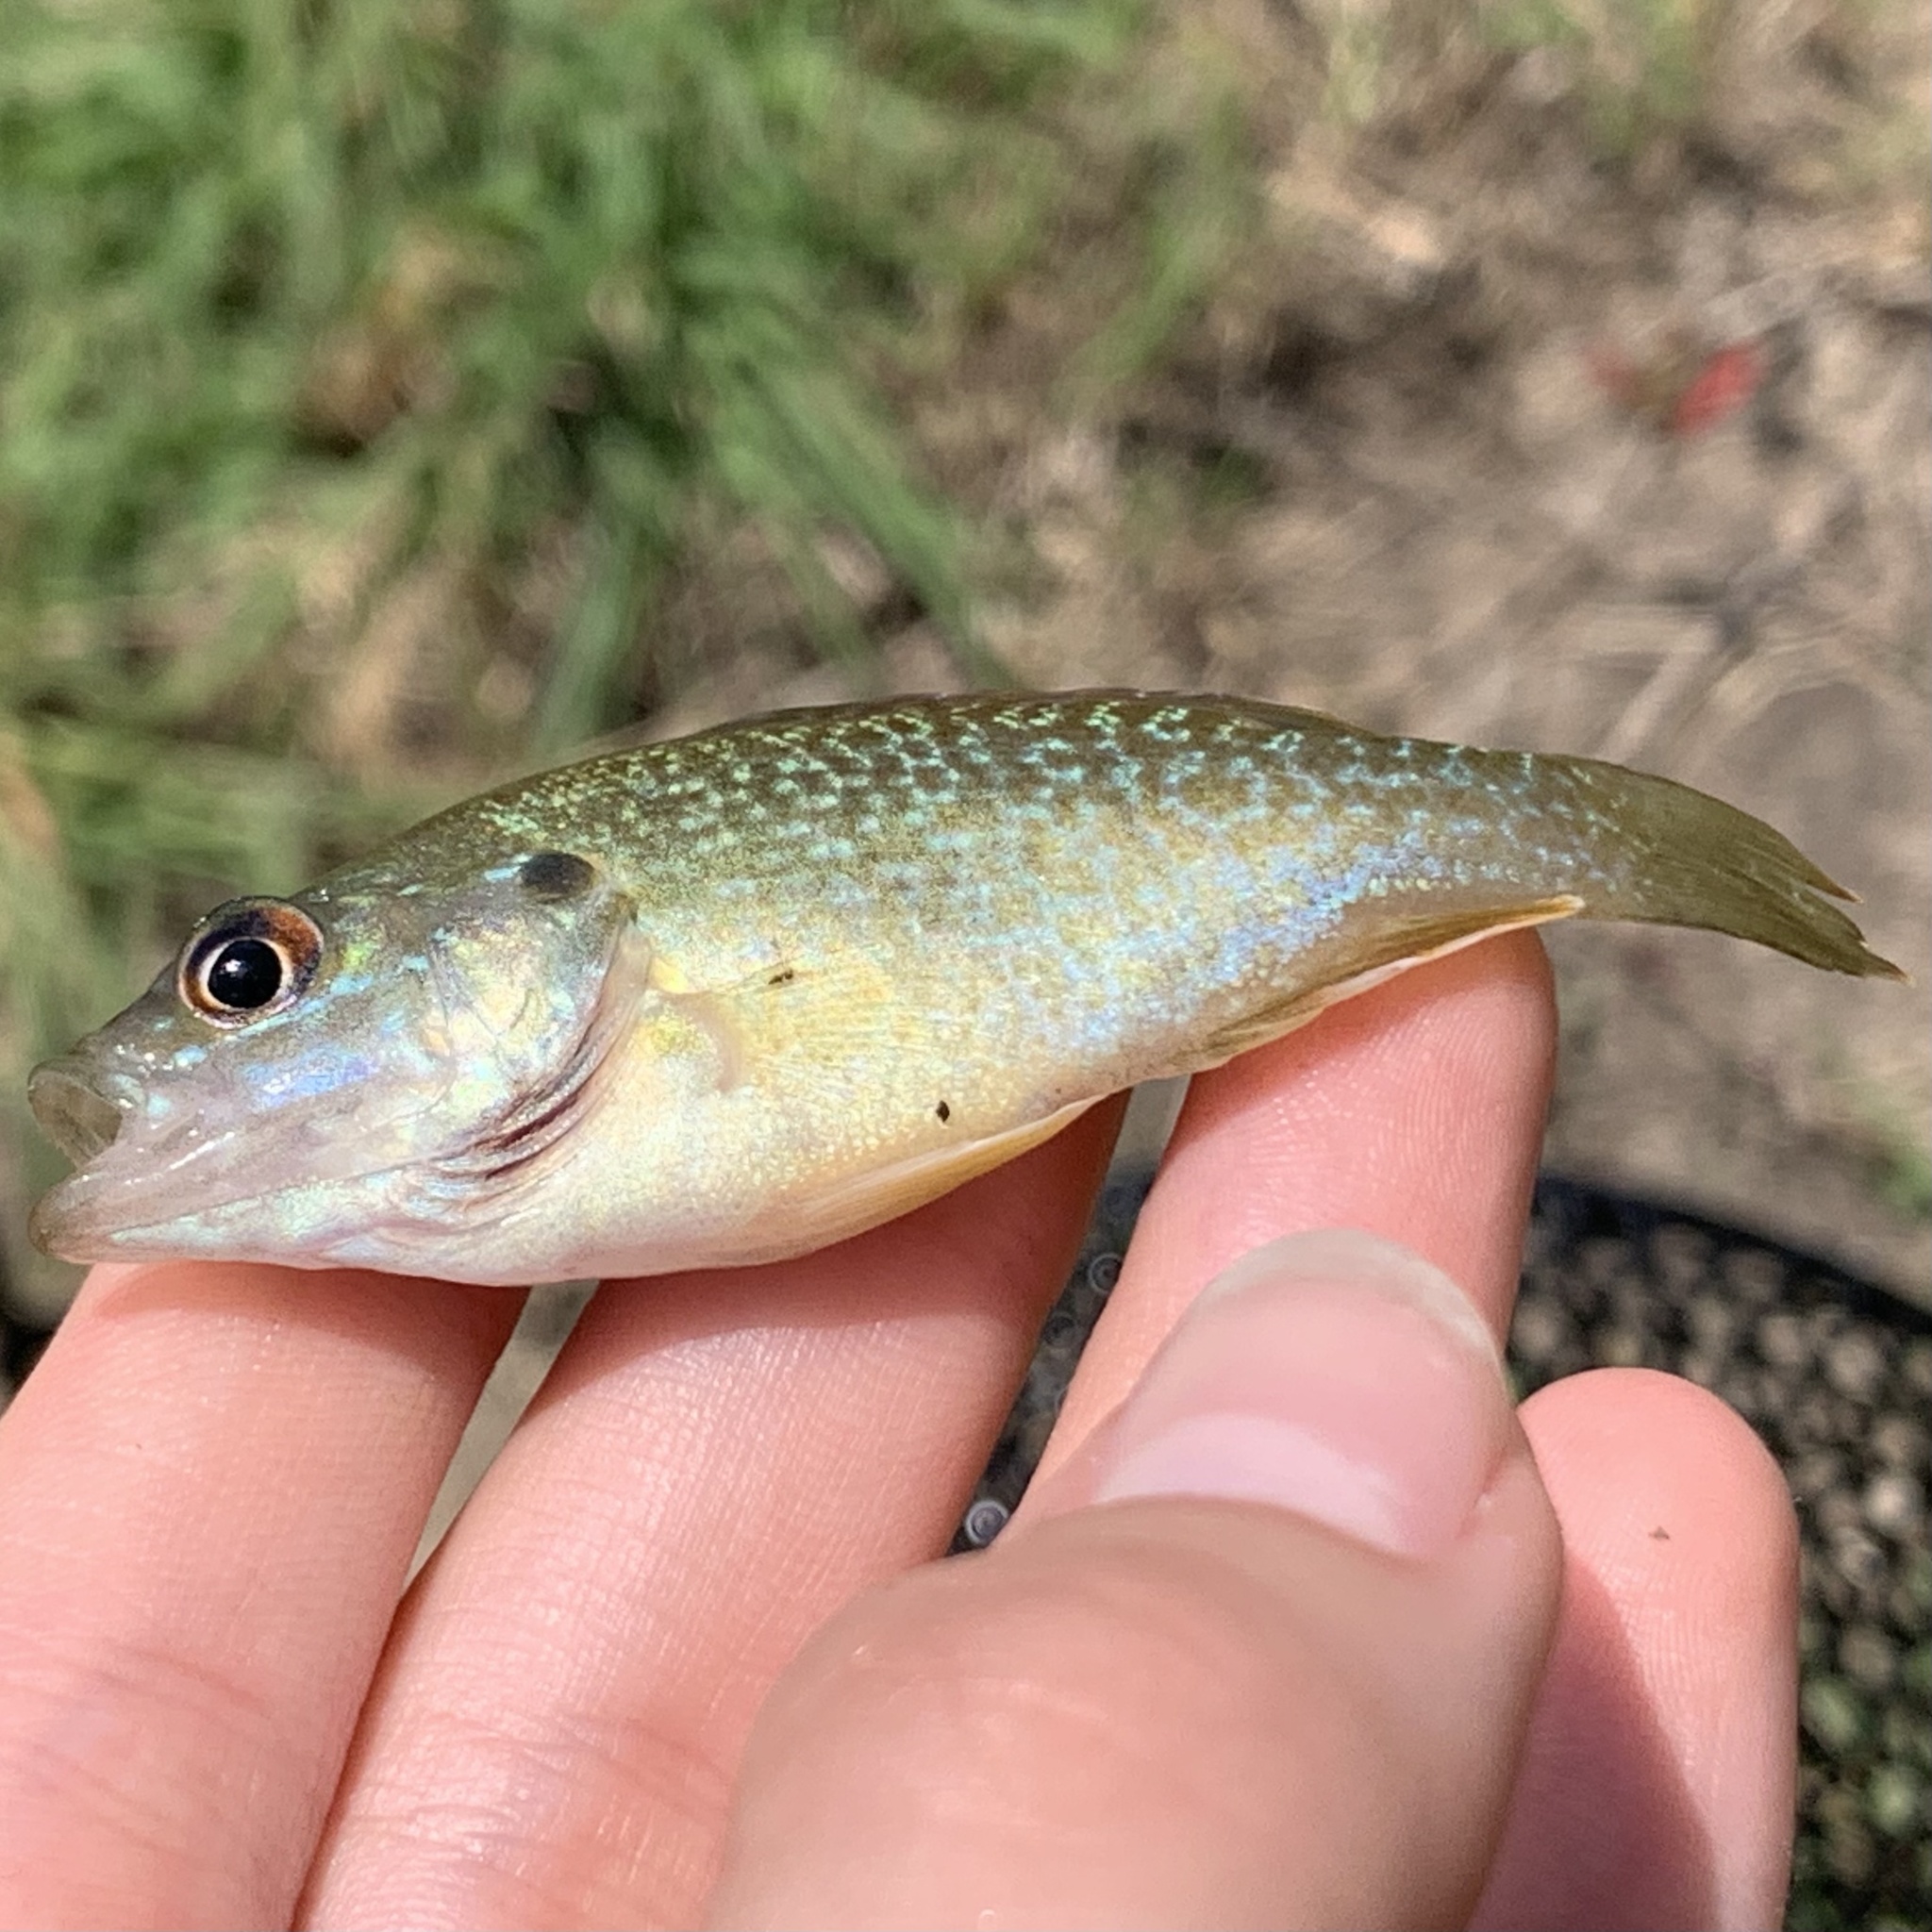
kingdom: Animalia
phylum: Chordata
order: Perciformes
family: Centrarchidae
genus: Lepomis
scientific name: Lepomis cyanellus
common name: Green sunfish
